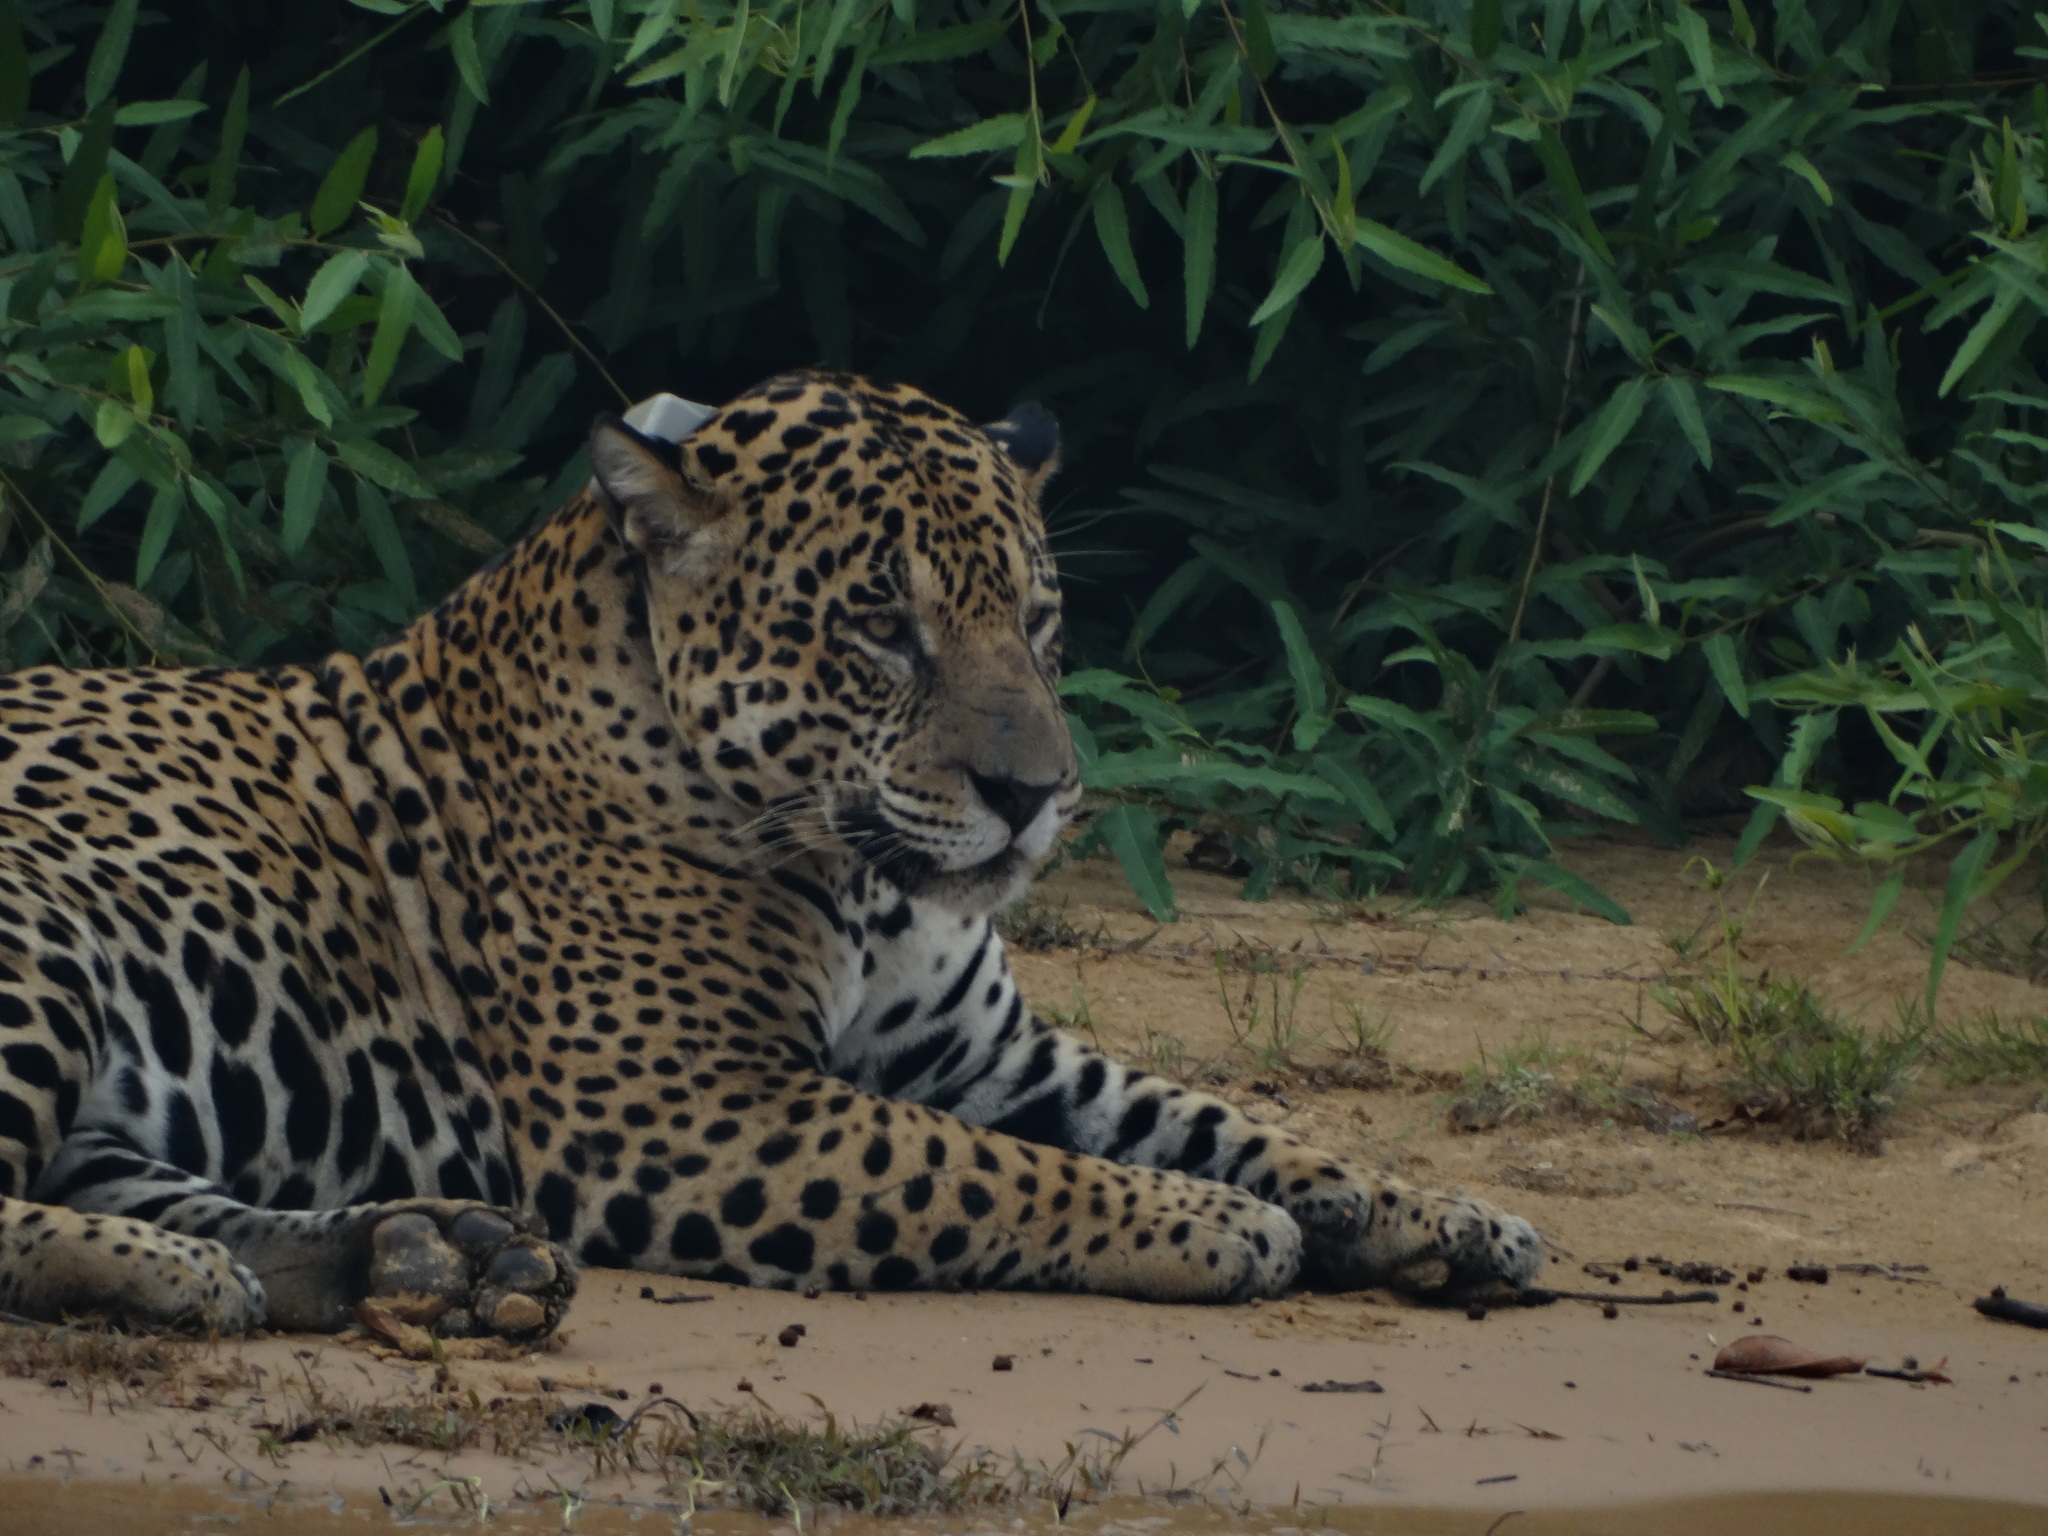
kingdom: Animalia
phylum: Chordata
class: Mammalia
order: Carnivora
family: Felidae
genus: Panthera
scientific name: Panthera onca
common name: Jaguar
